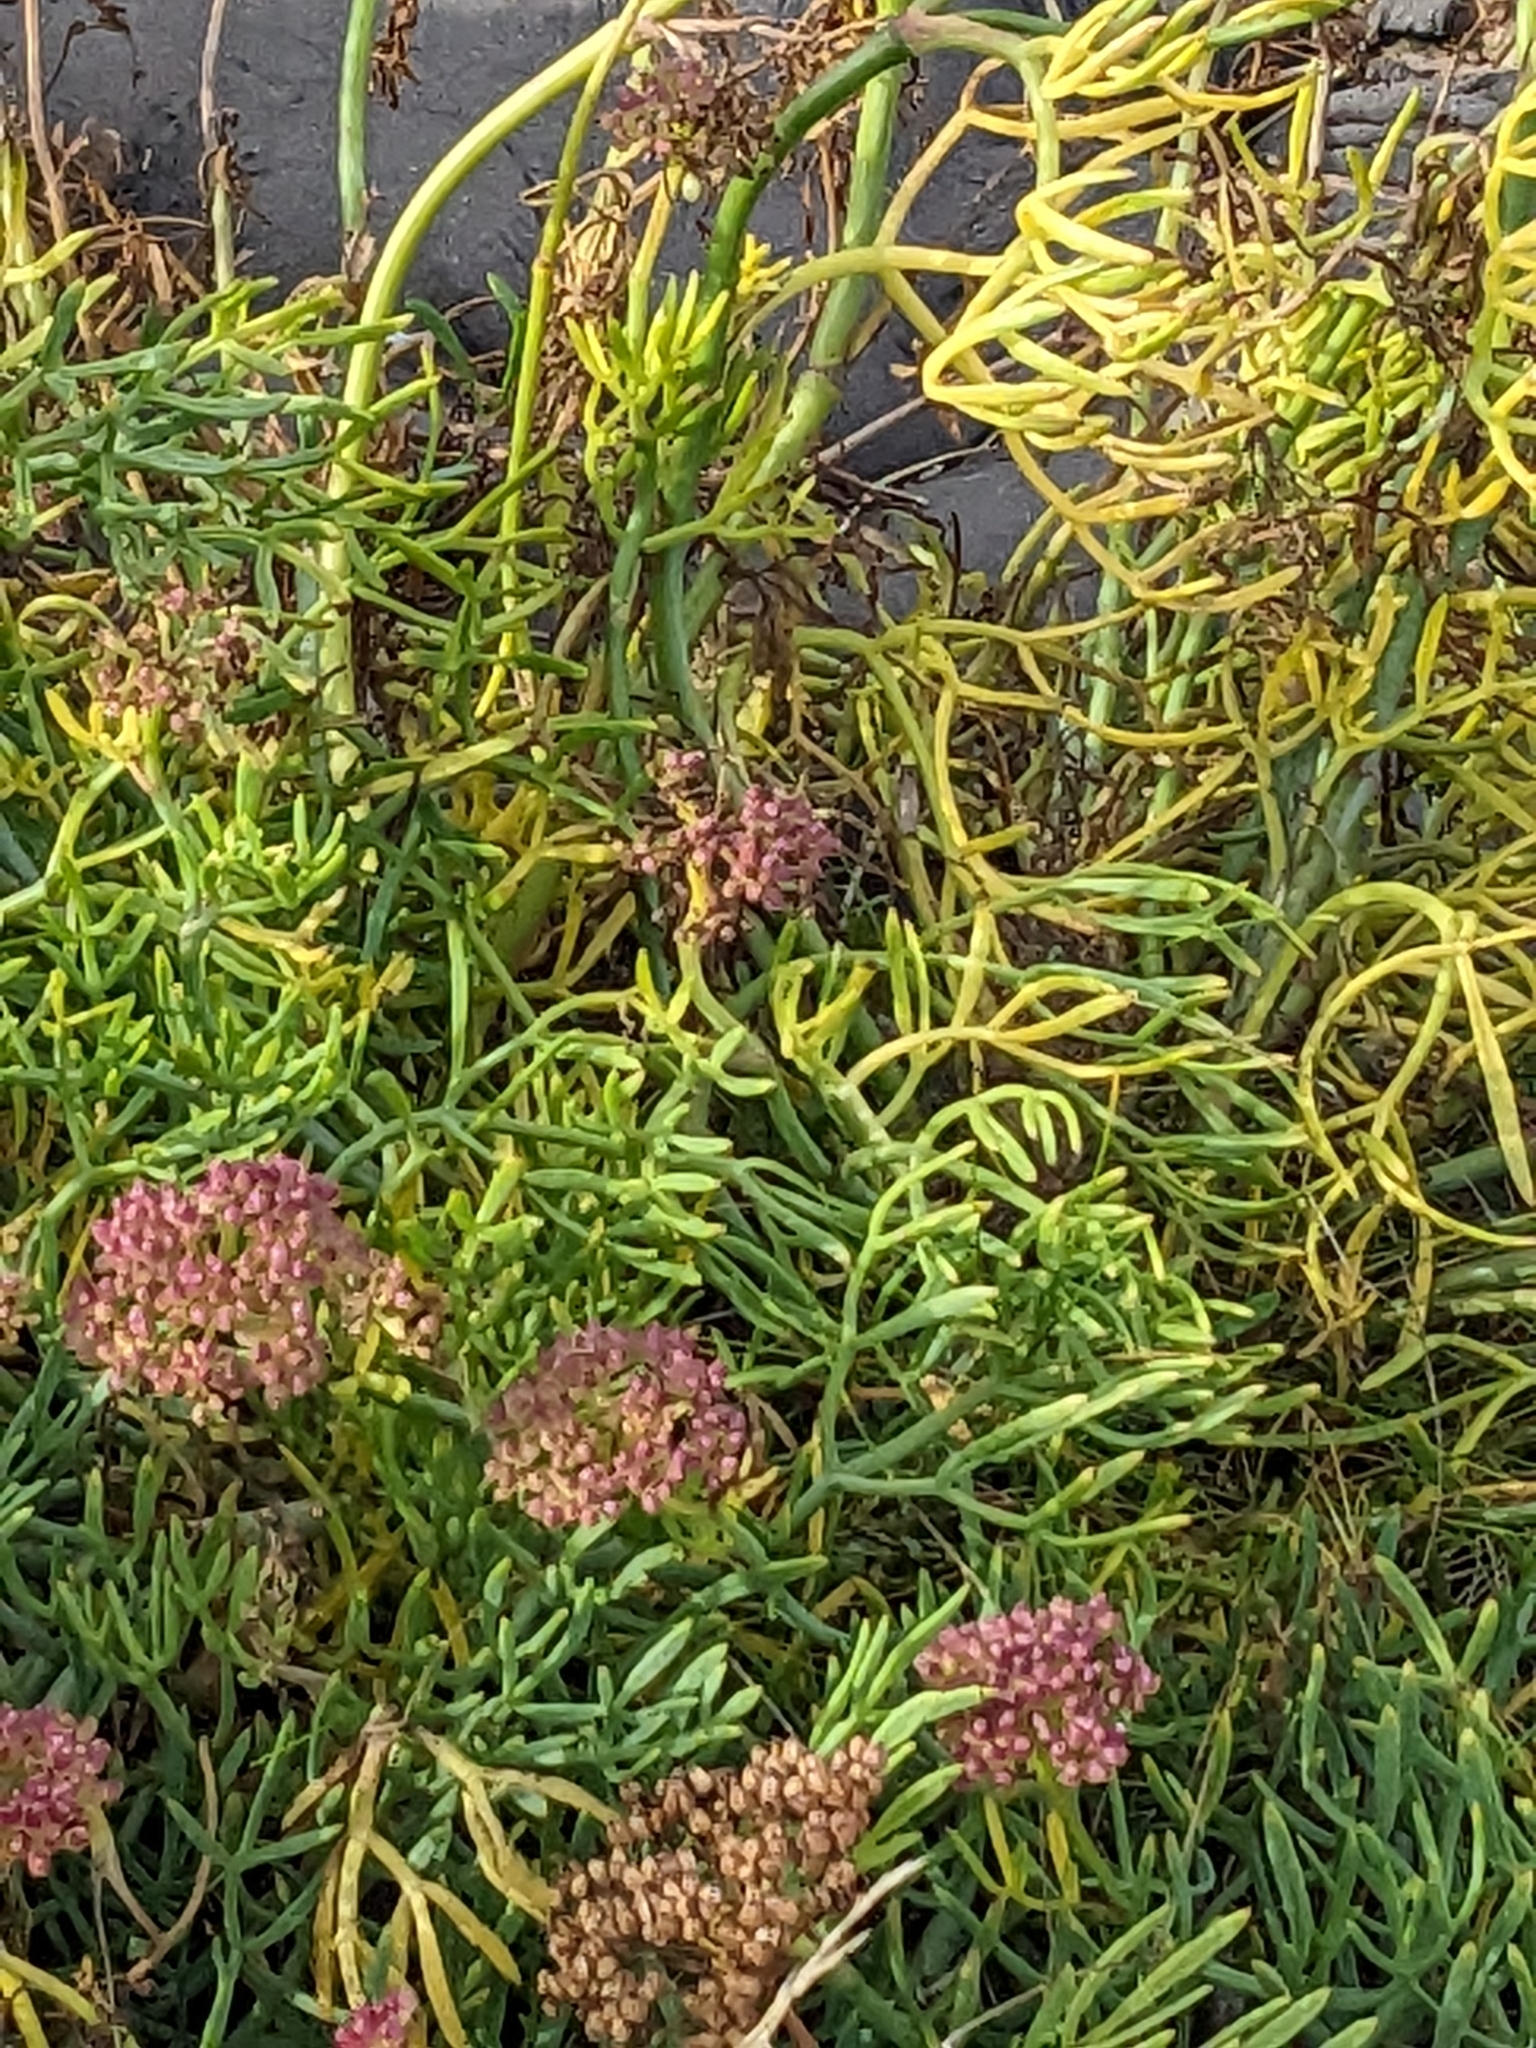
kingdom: Plantae
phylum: Tracheophyta
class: Magnoliopsida
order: Apiales
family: Apiaceae
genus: Crithmum
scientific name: Crithmum maritimum
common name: Rock samphire
